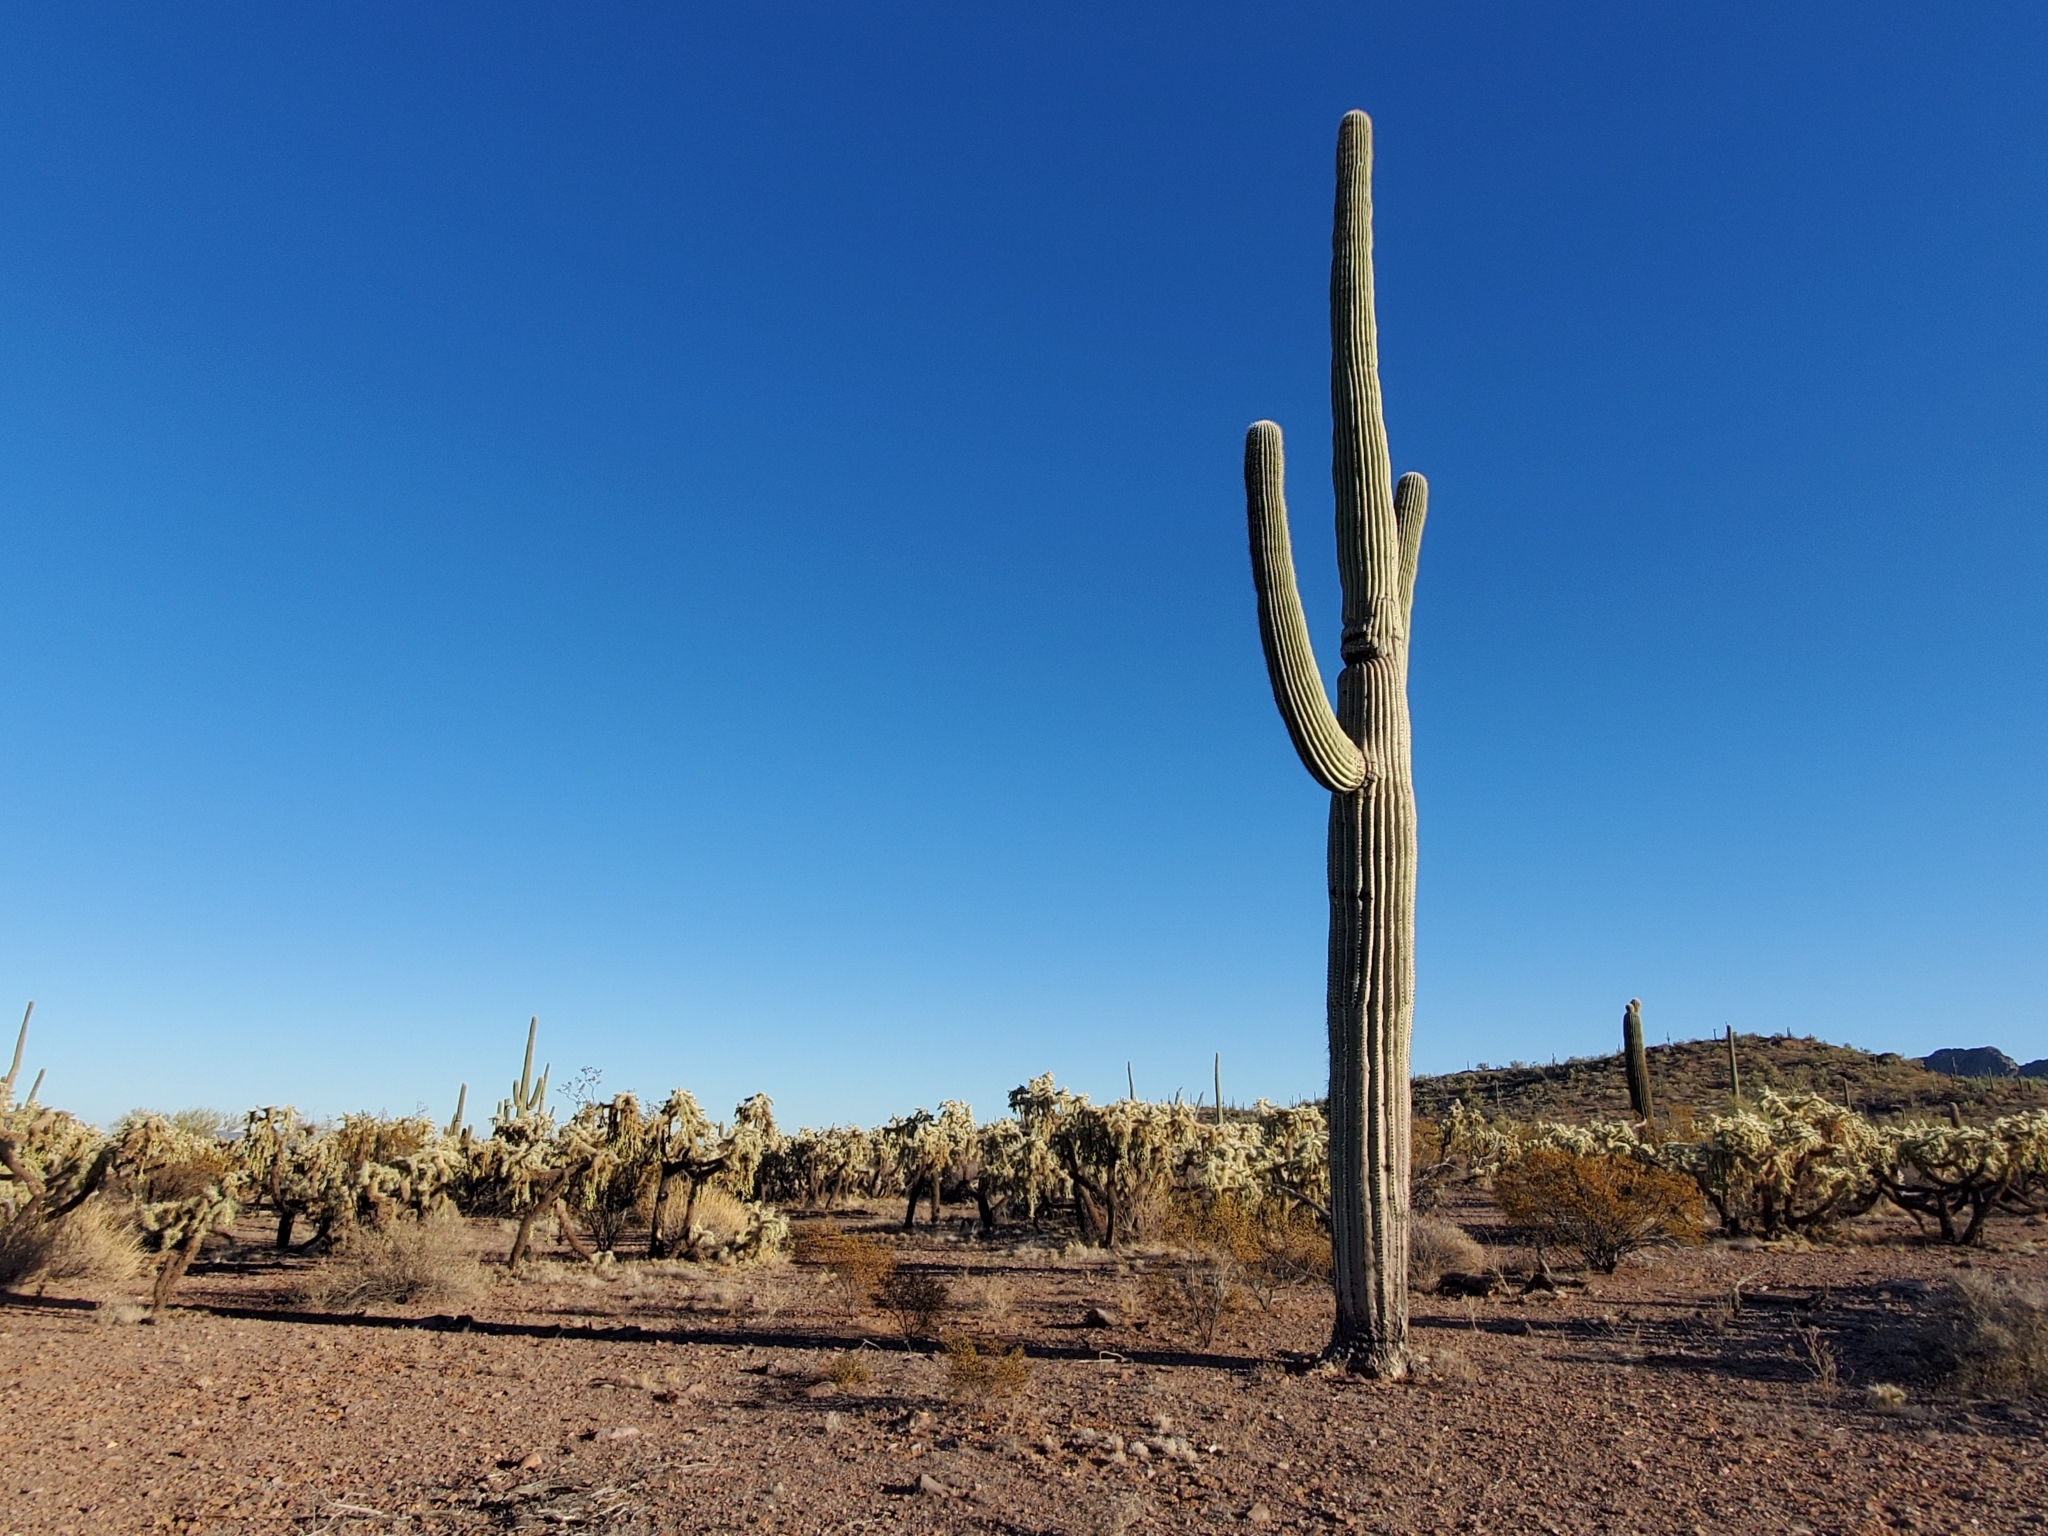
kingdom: Plantae
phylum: Tracheophyta
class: Magnoliopsida
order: Caryophyllales
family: Cactaceae
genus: Carnegiea
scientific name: Carnegiea gigantea
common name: Saguaro
